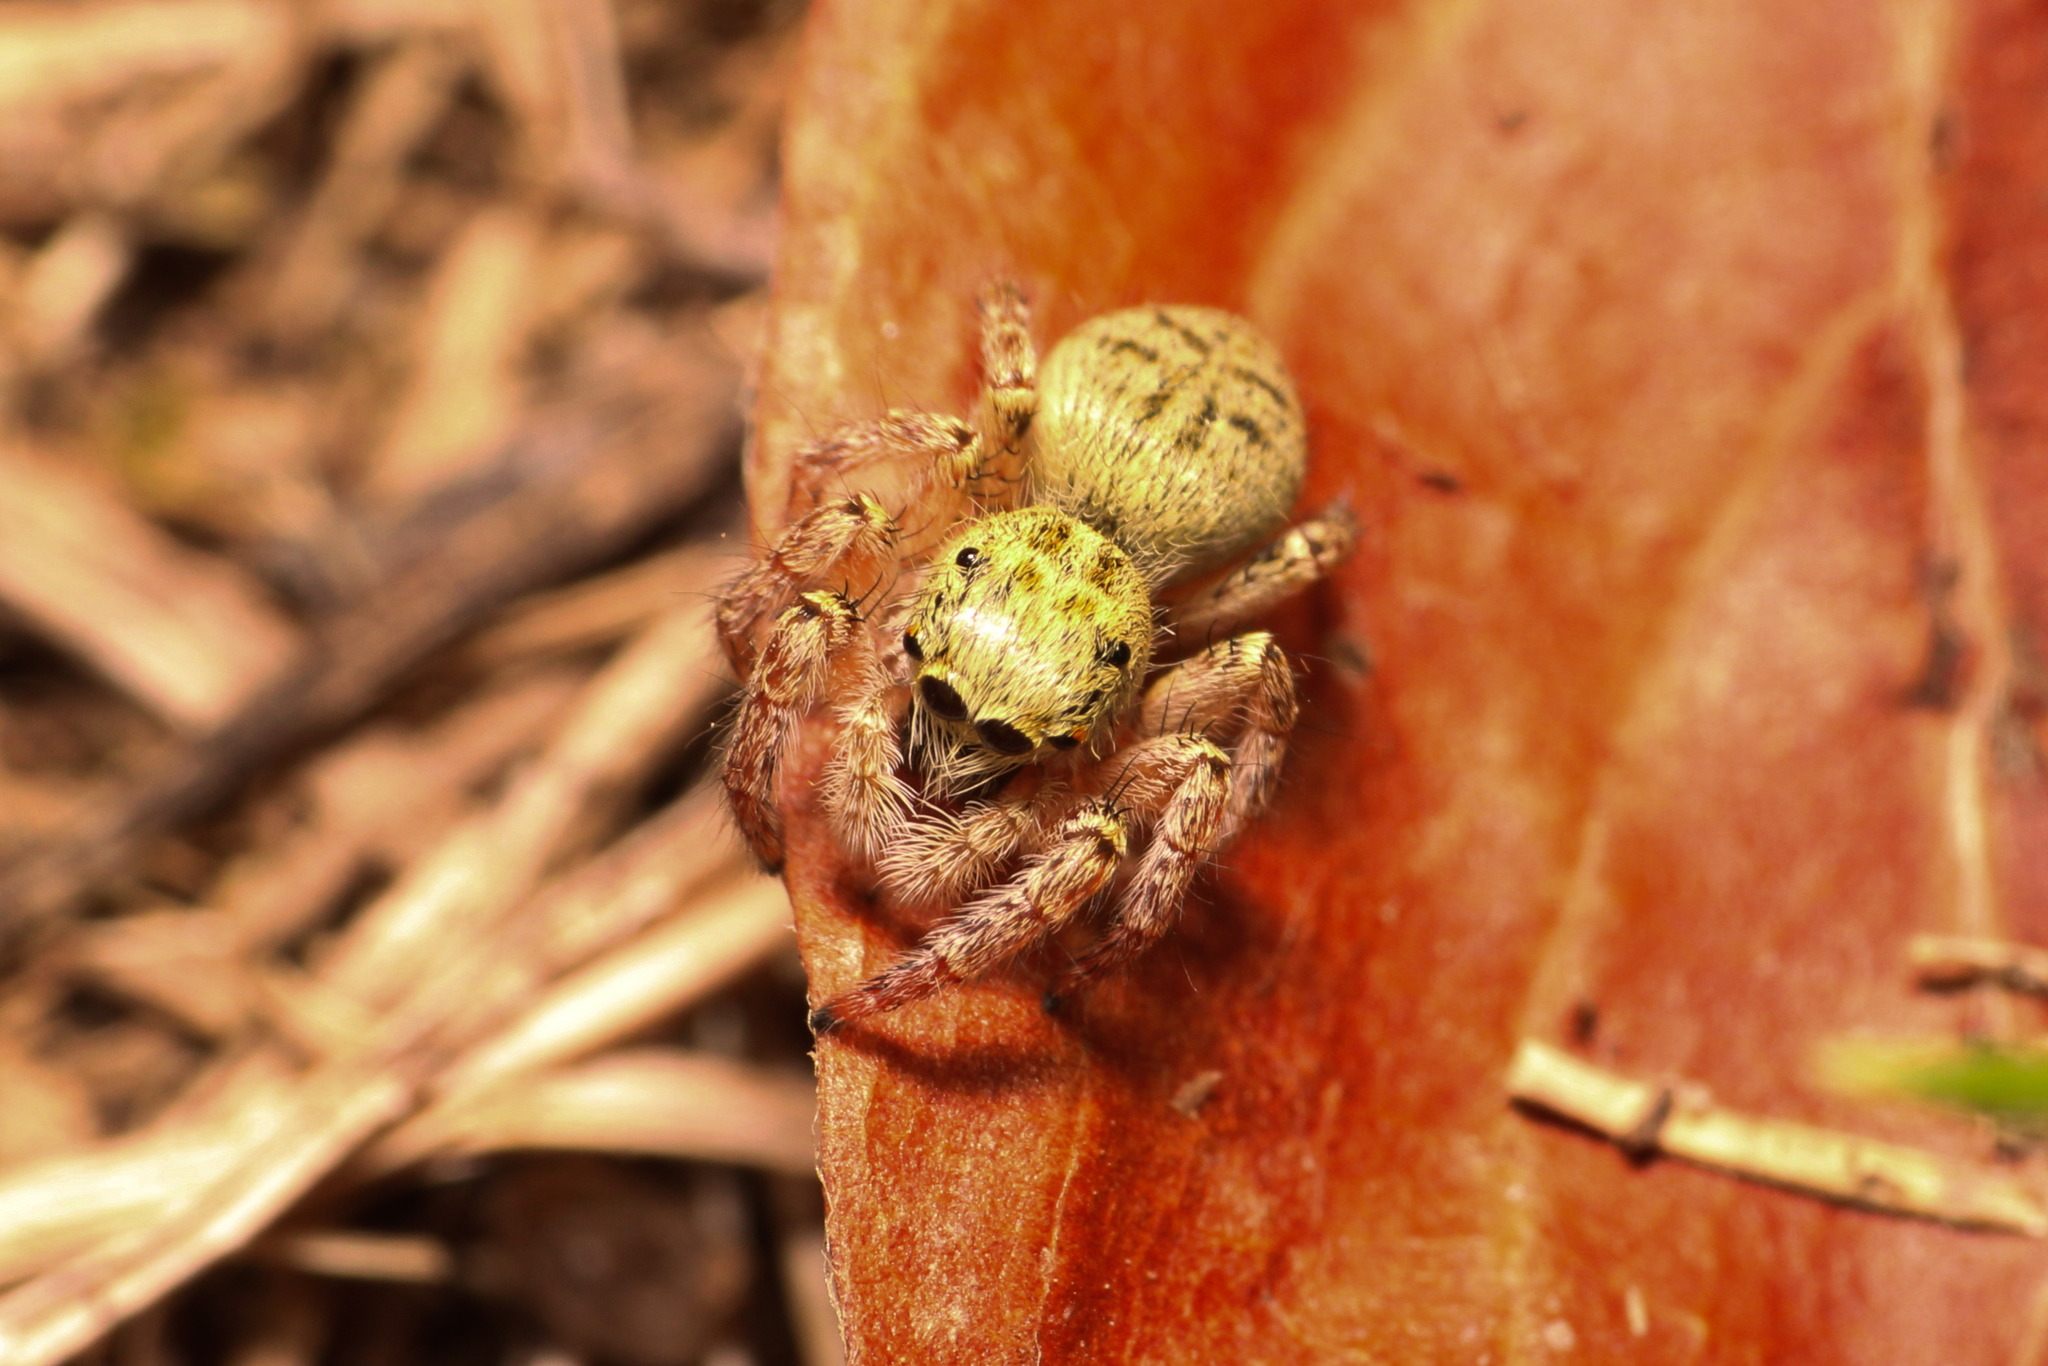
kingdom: Animalia
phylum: Arthropoda
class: Arachnida
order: Araneae
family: Salticidae
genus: Carrhotus
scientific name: Carrhotus xanthogramma
